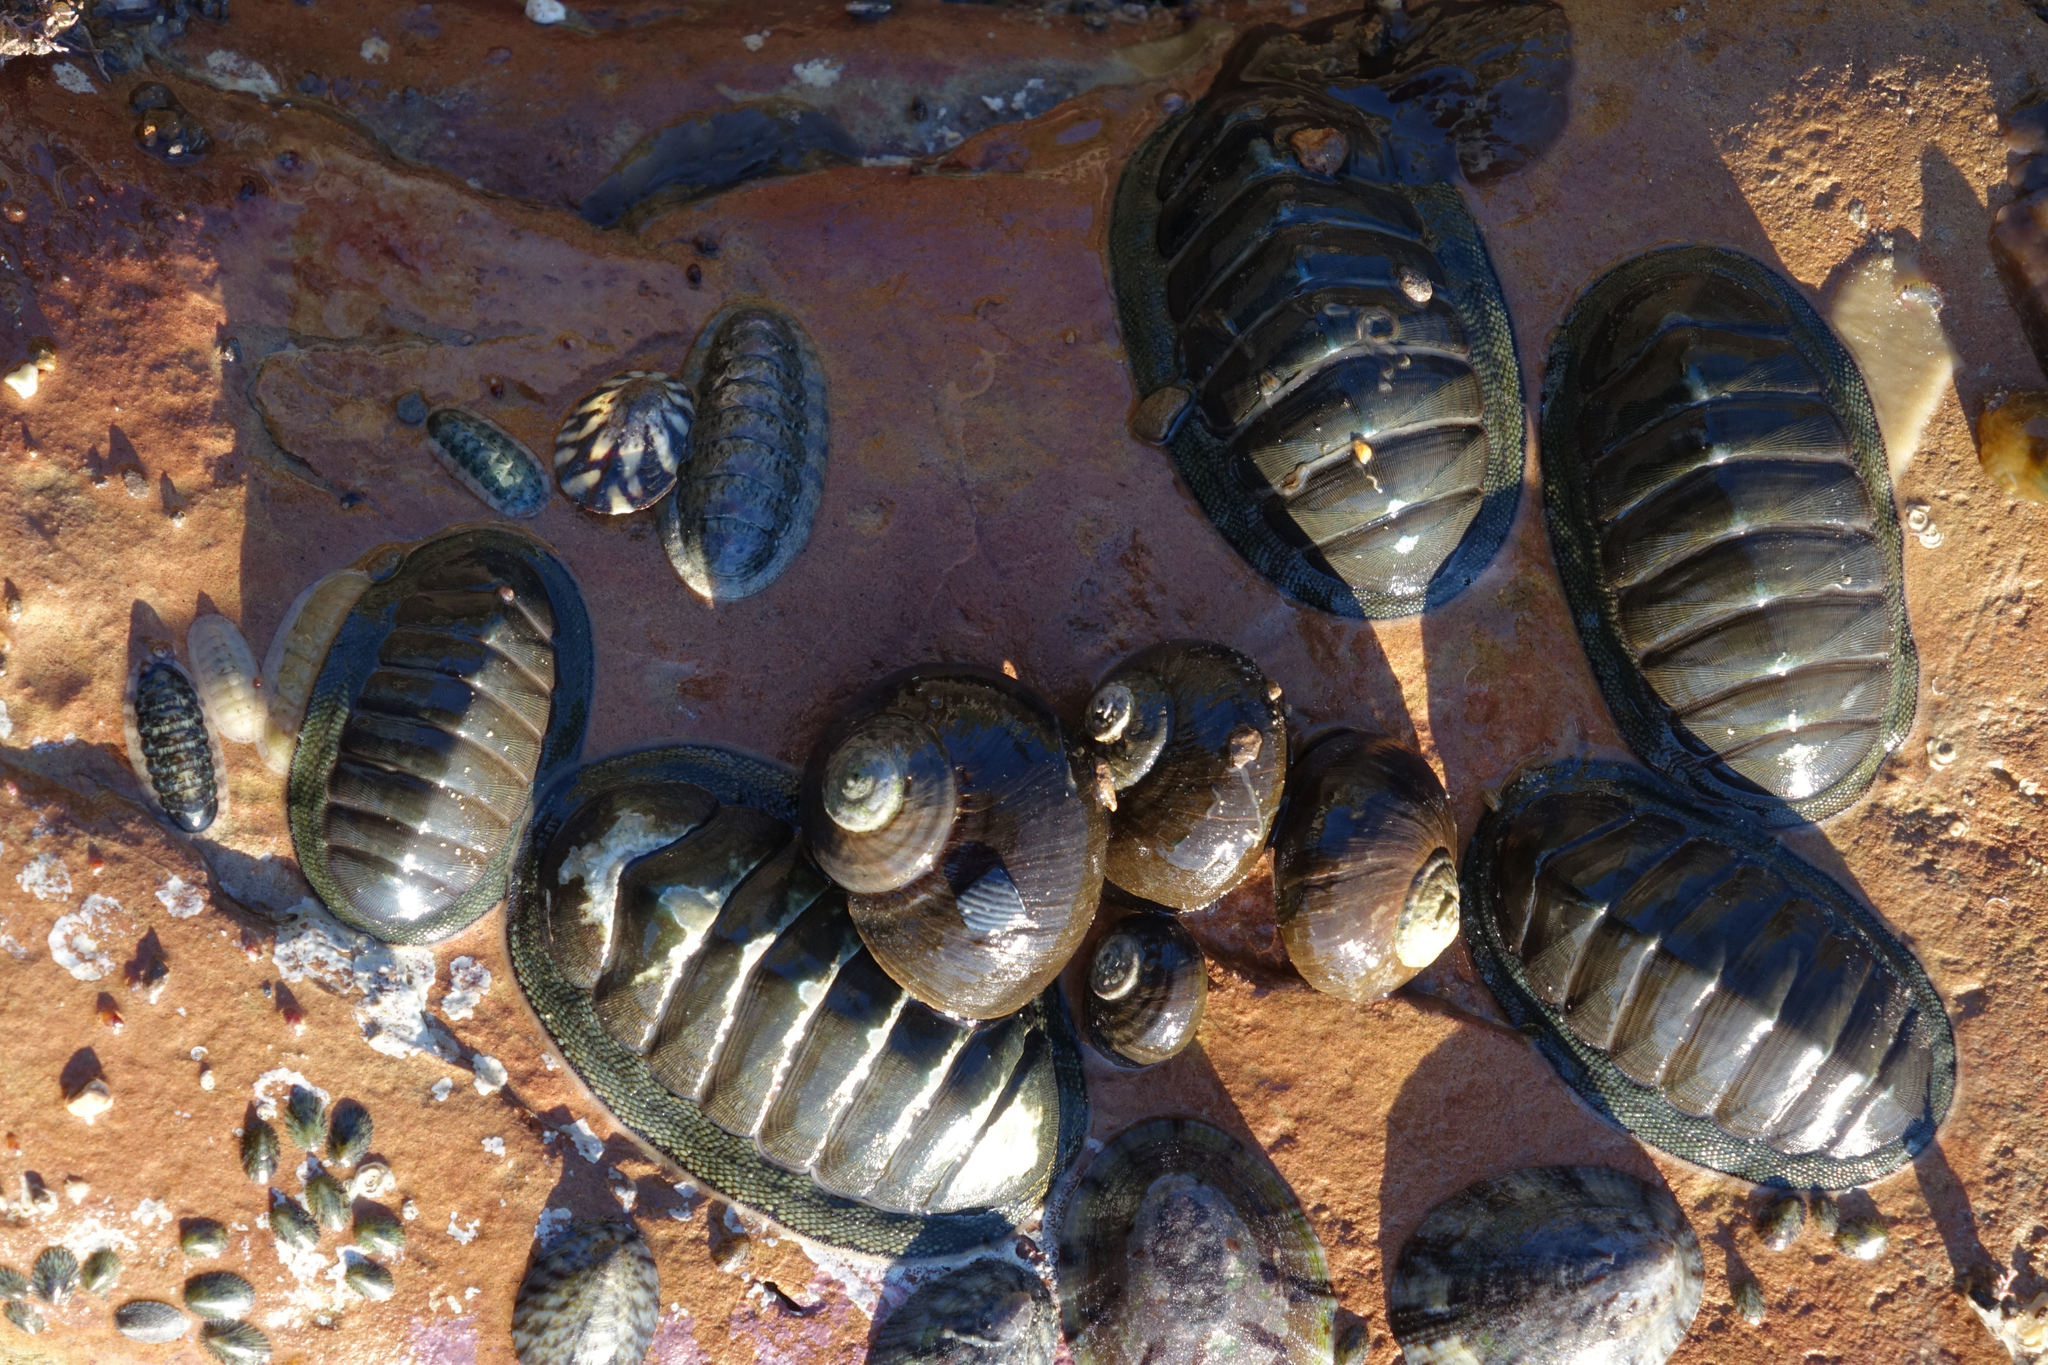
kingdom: Animalia
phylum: Mollusca
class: Polyplacophora
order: Chitonida
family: Ischnochitonidae
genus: Ischnochiton
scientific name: Ischnochiton maorianus
